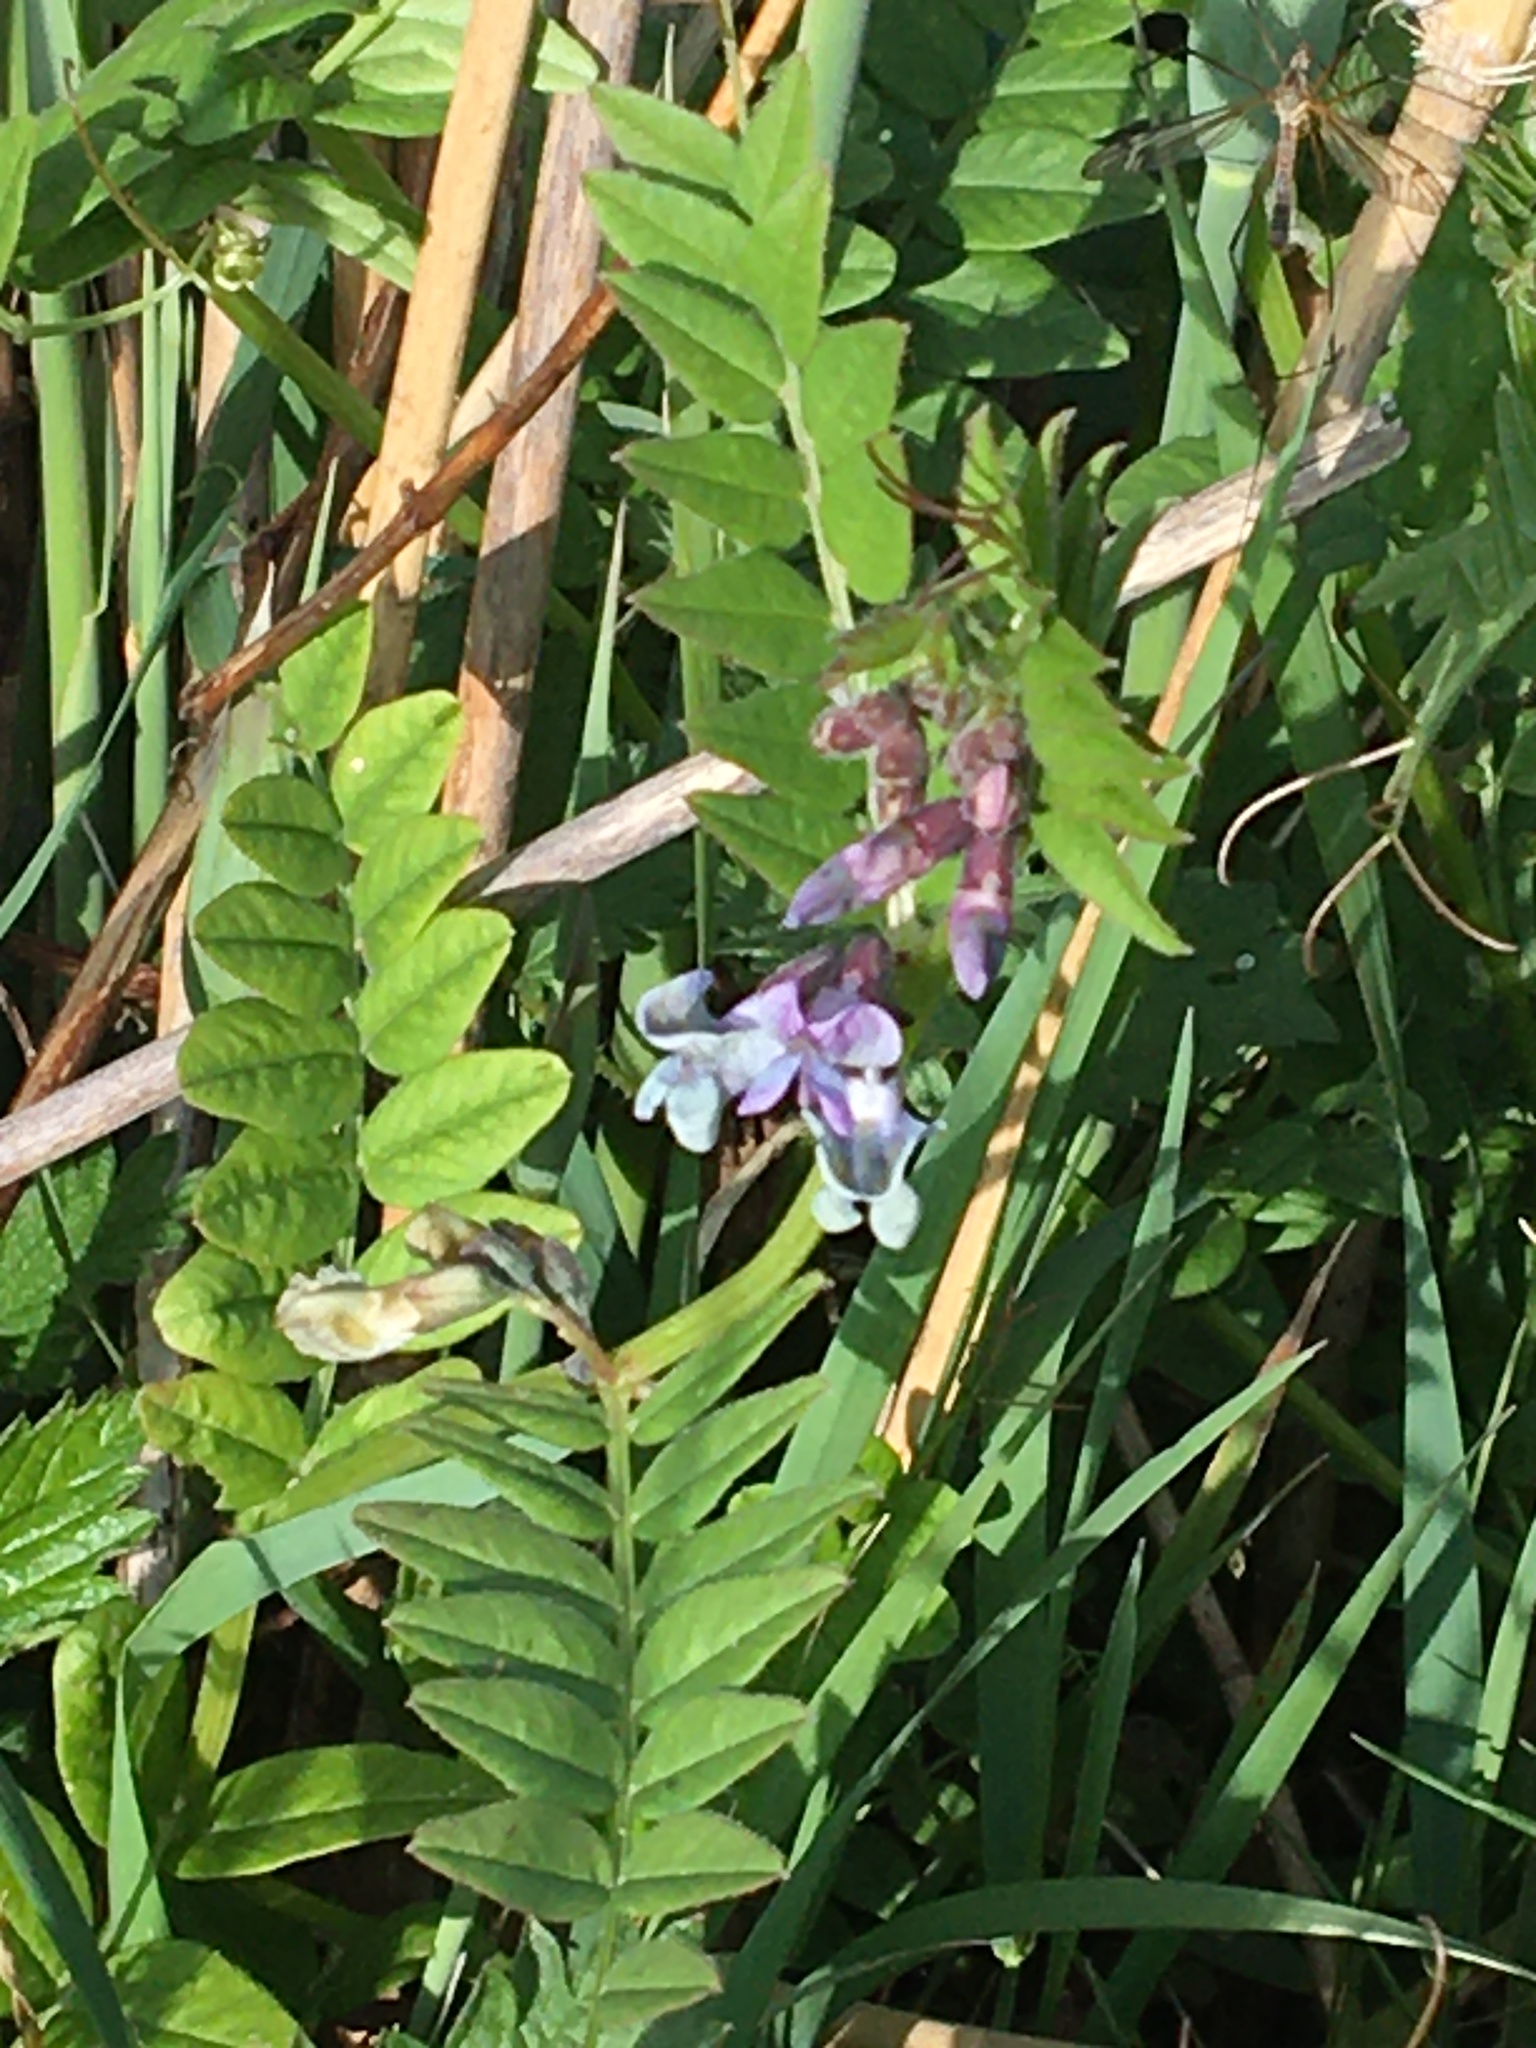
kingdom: Plantae
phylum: Tracheophyta
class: Magnoliopsida
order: Fabales
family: Fabaceae
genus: Vicia
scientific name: Vicia sepium
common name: Bush vetch
